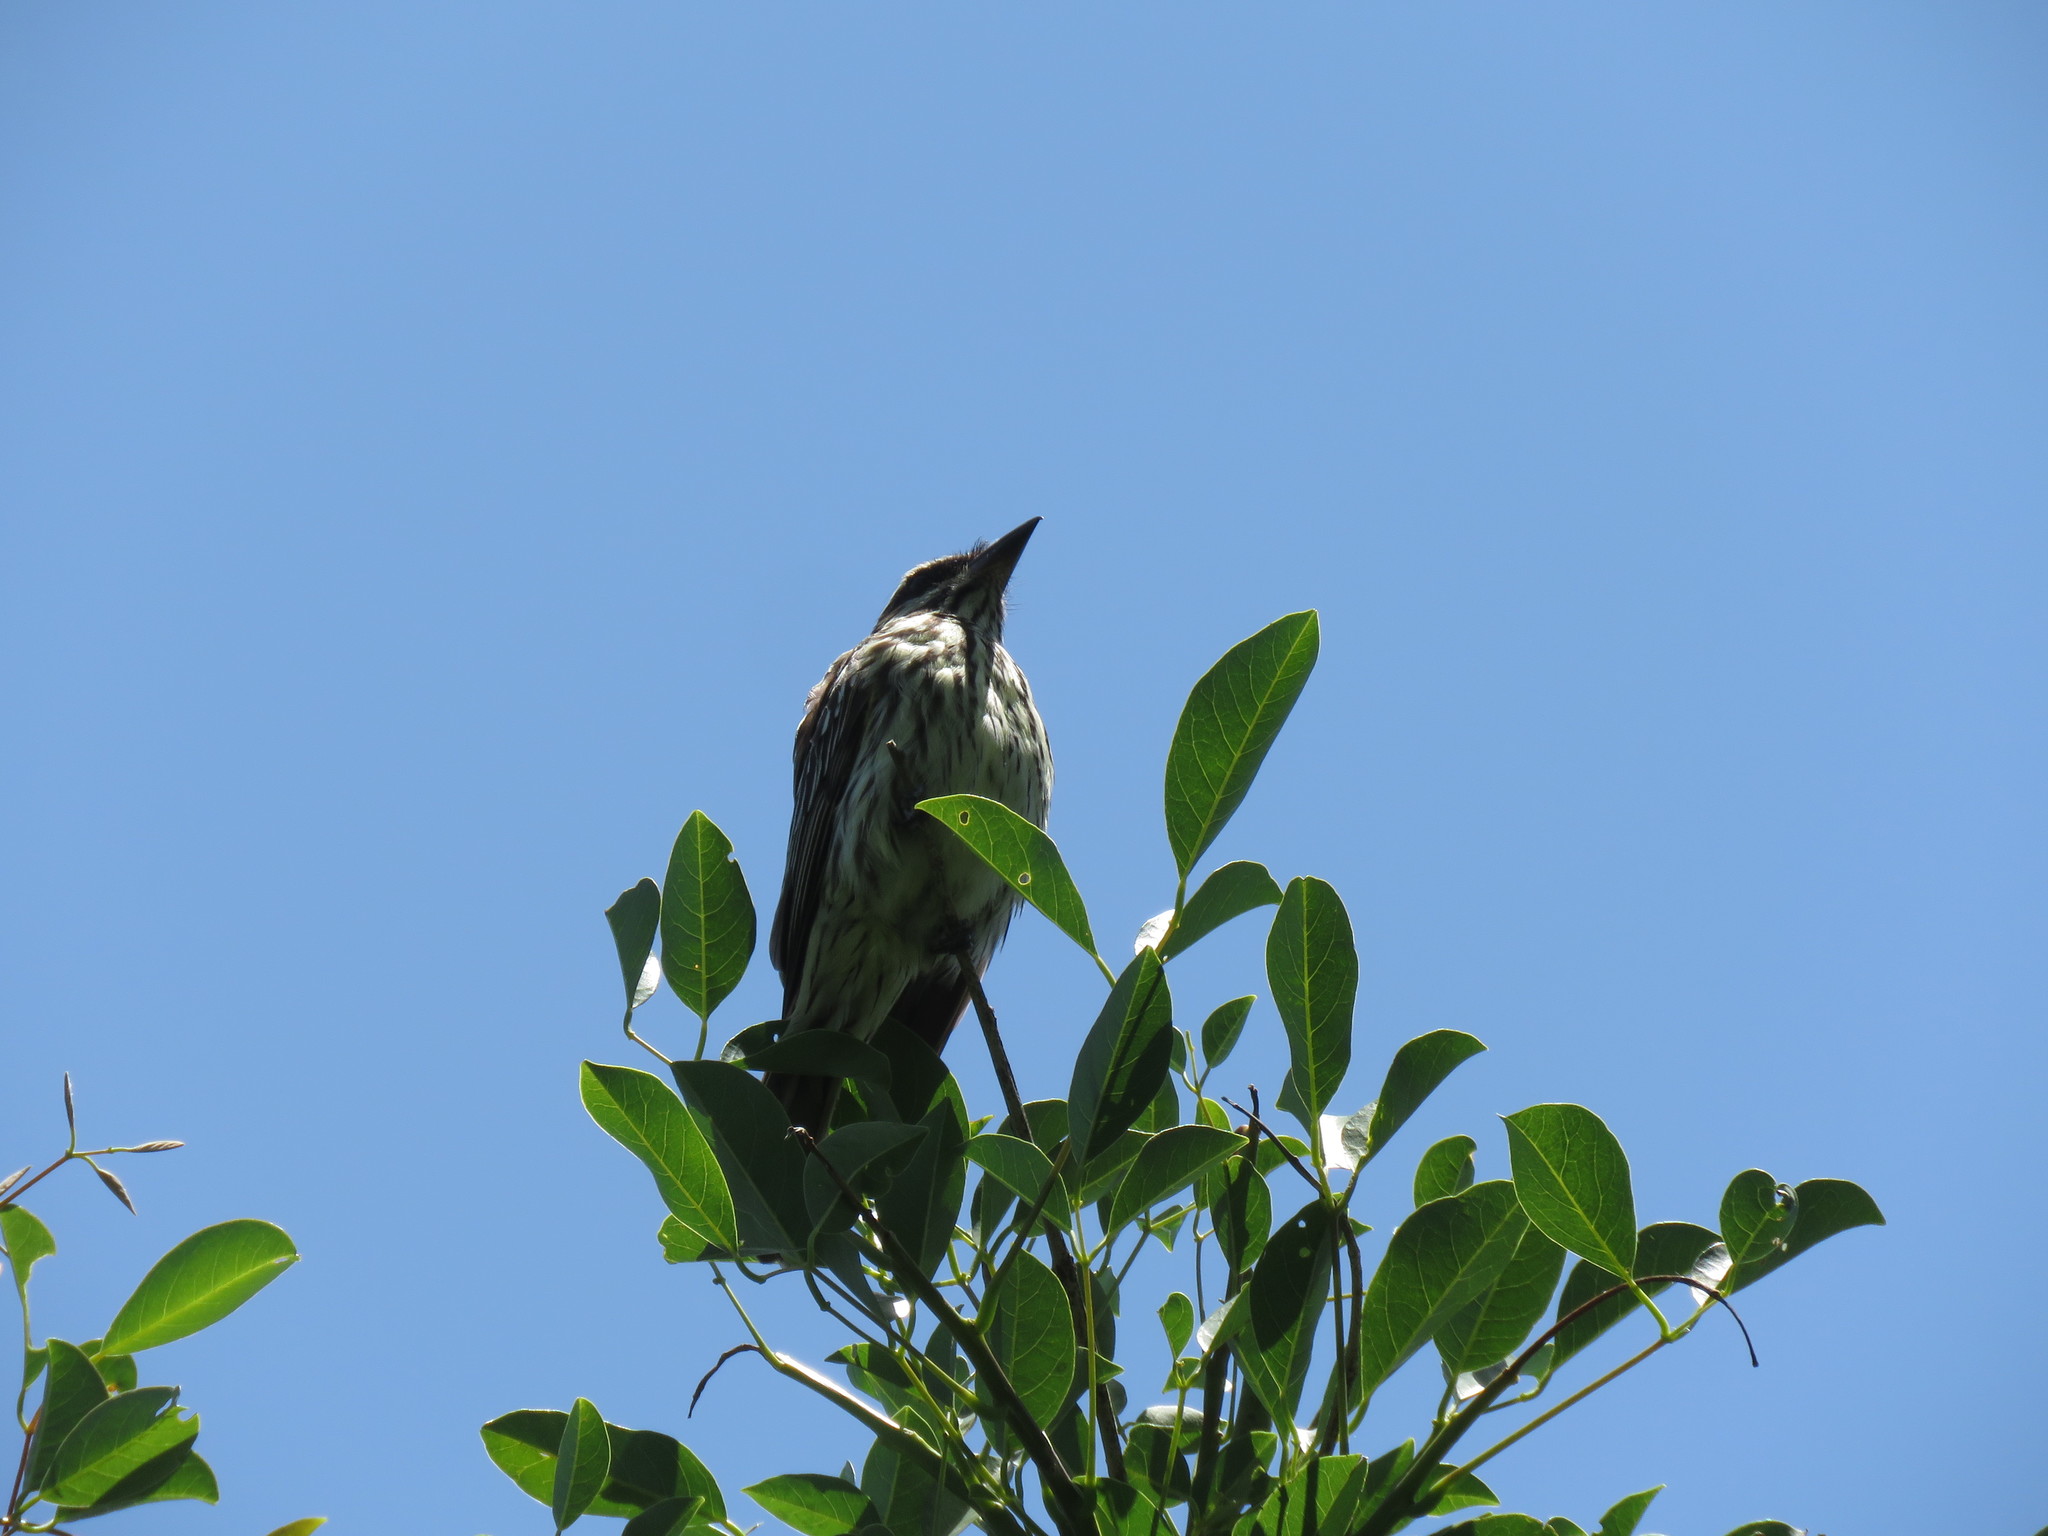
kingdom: Animalia
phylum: Chordata
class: Aves
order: Passeriformes
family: Tyrannidae
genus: Myiodynastes
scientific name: Myiodynastes maculatus
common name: Streaked flycatcher
